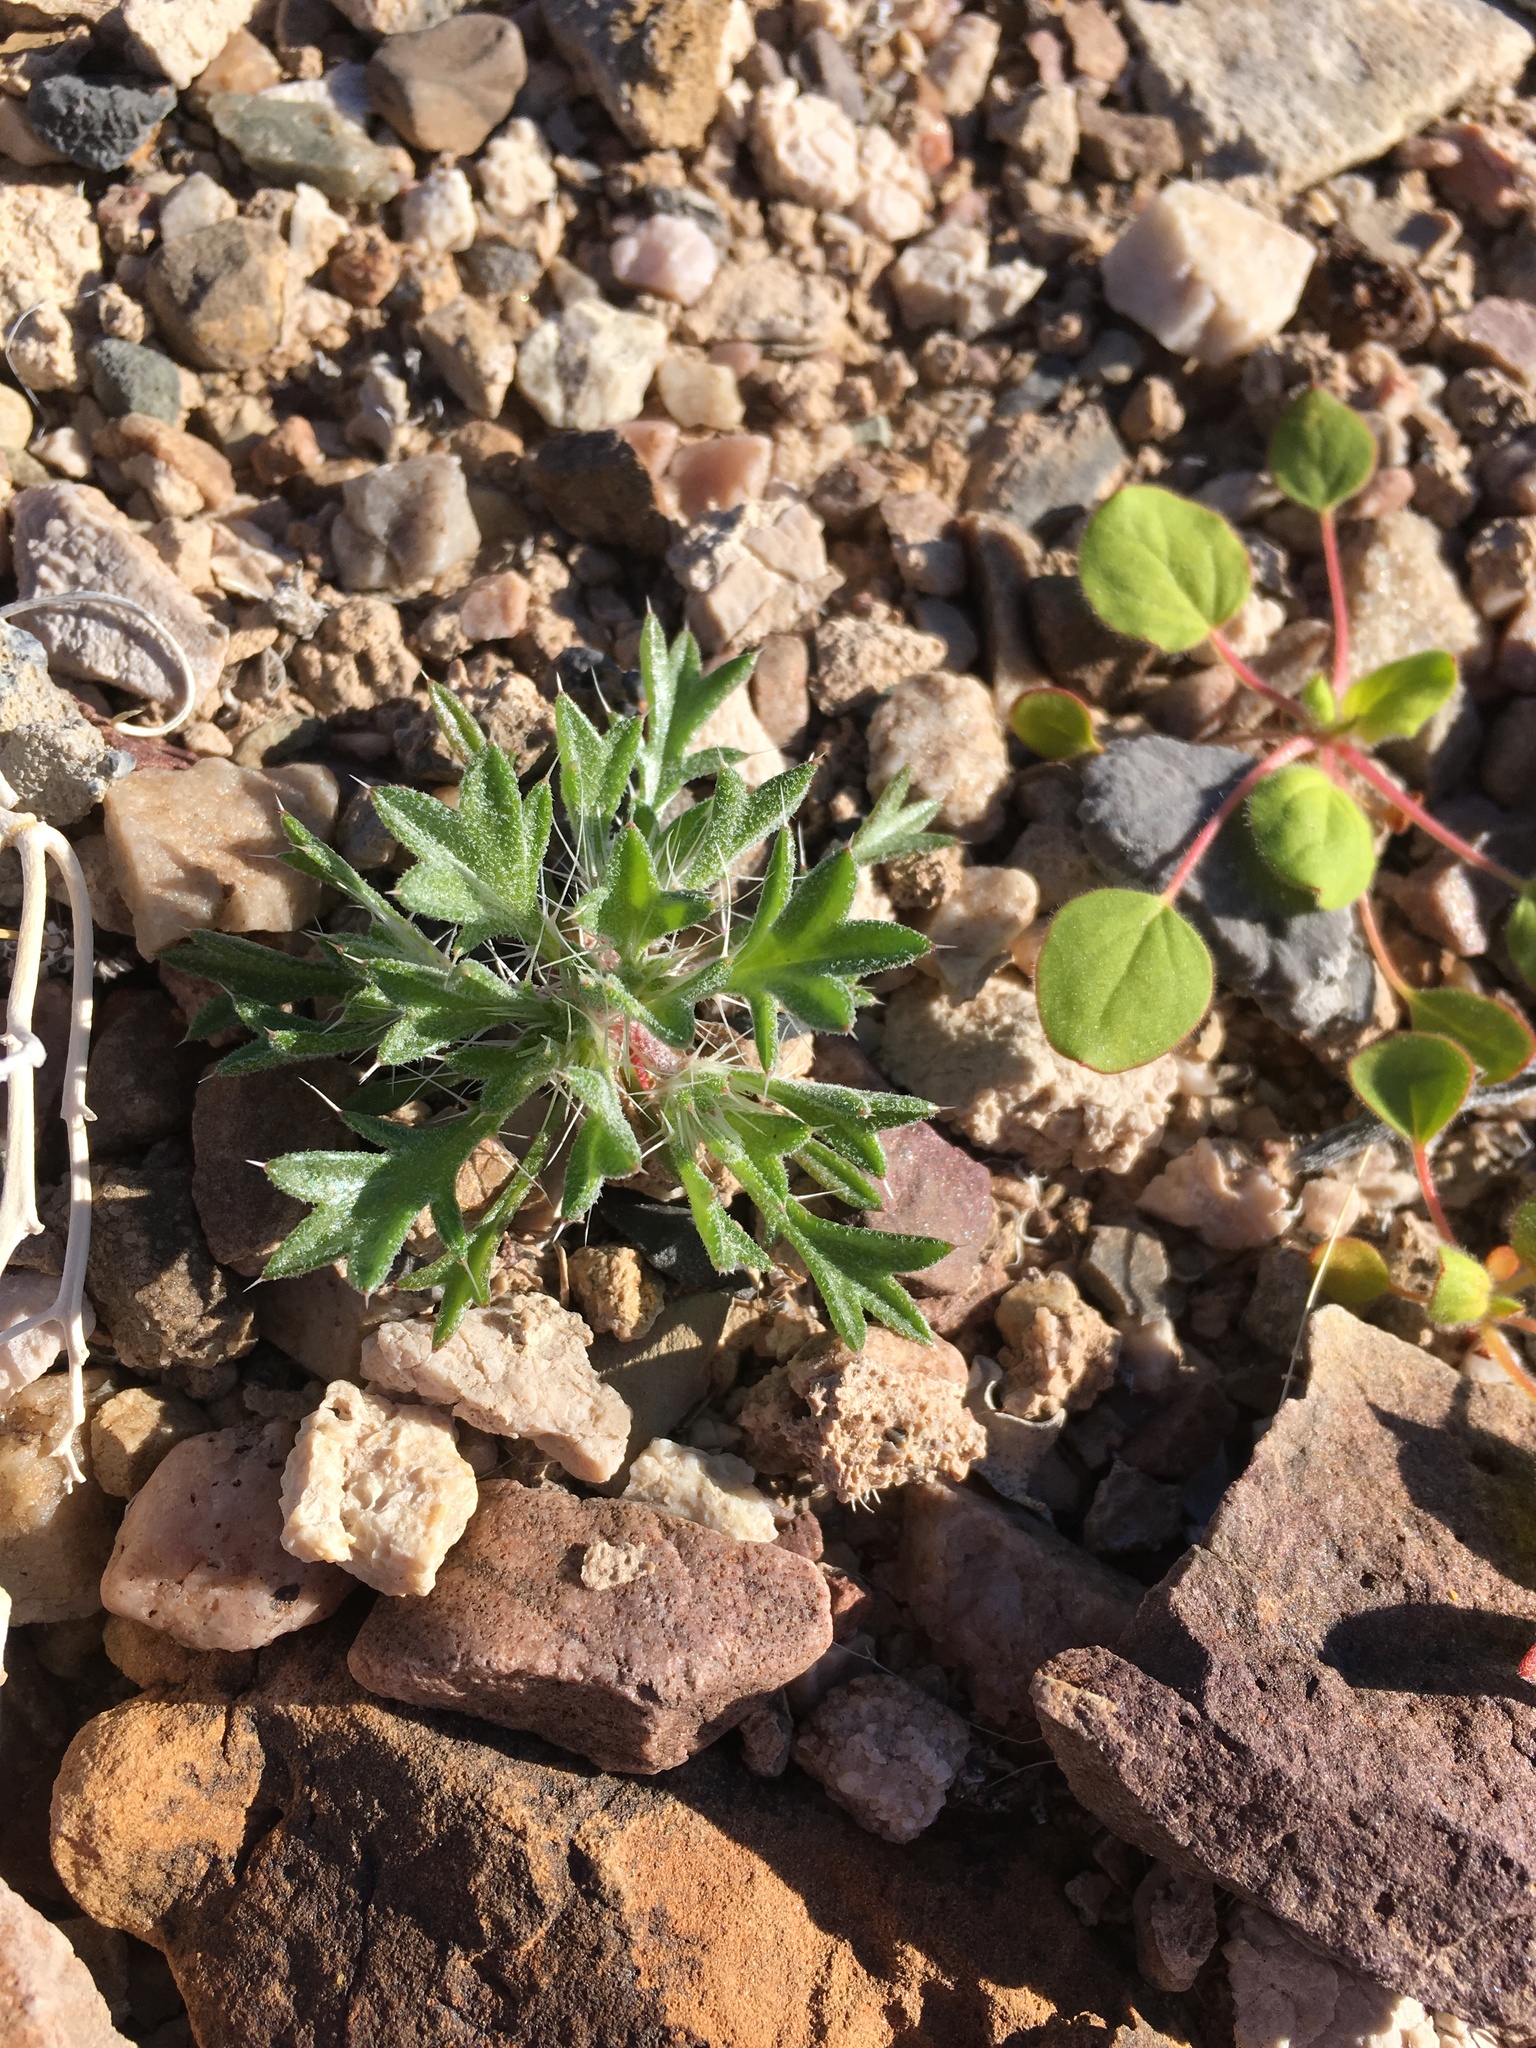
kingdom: Plantae
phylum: Tracheophyta
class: Magnoliopsida
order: Ericales
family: Polemoniaceae
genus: Langloisia
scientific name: Langloisia setosissima
